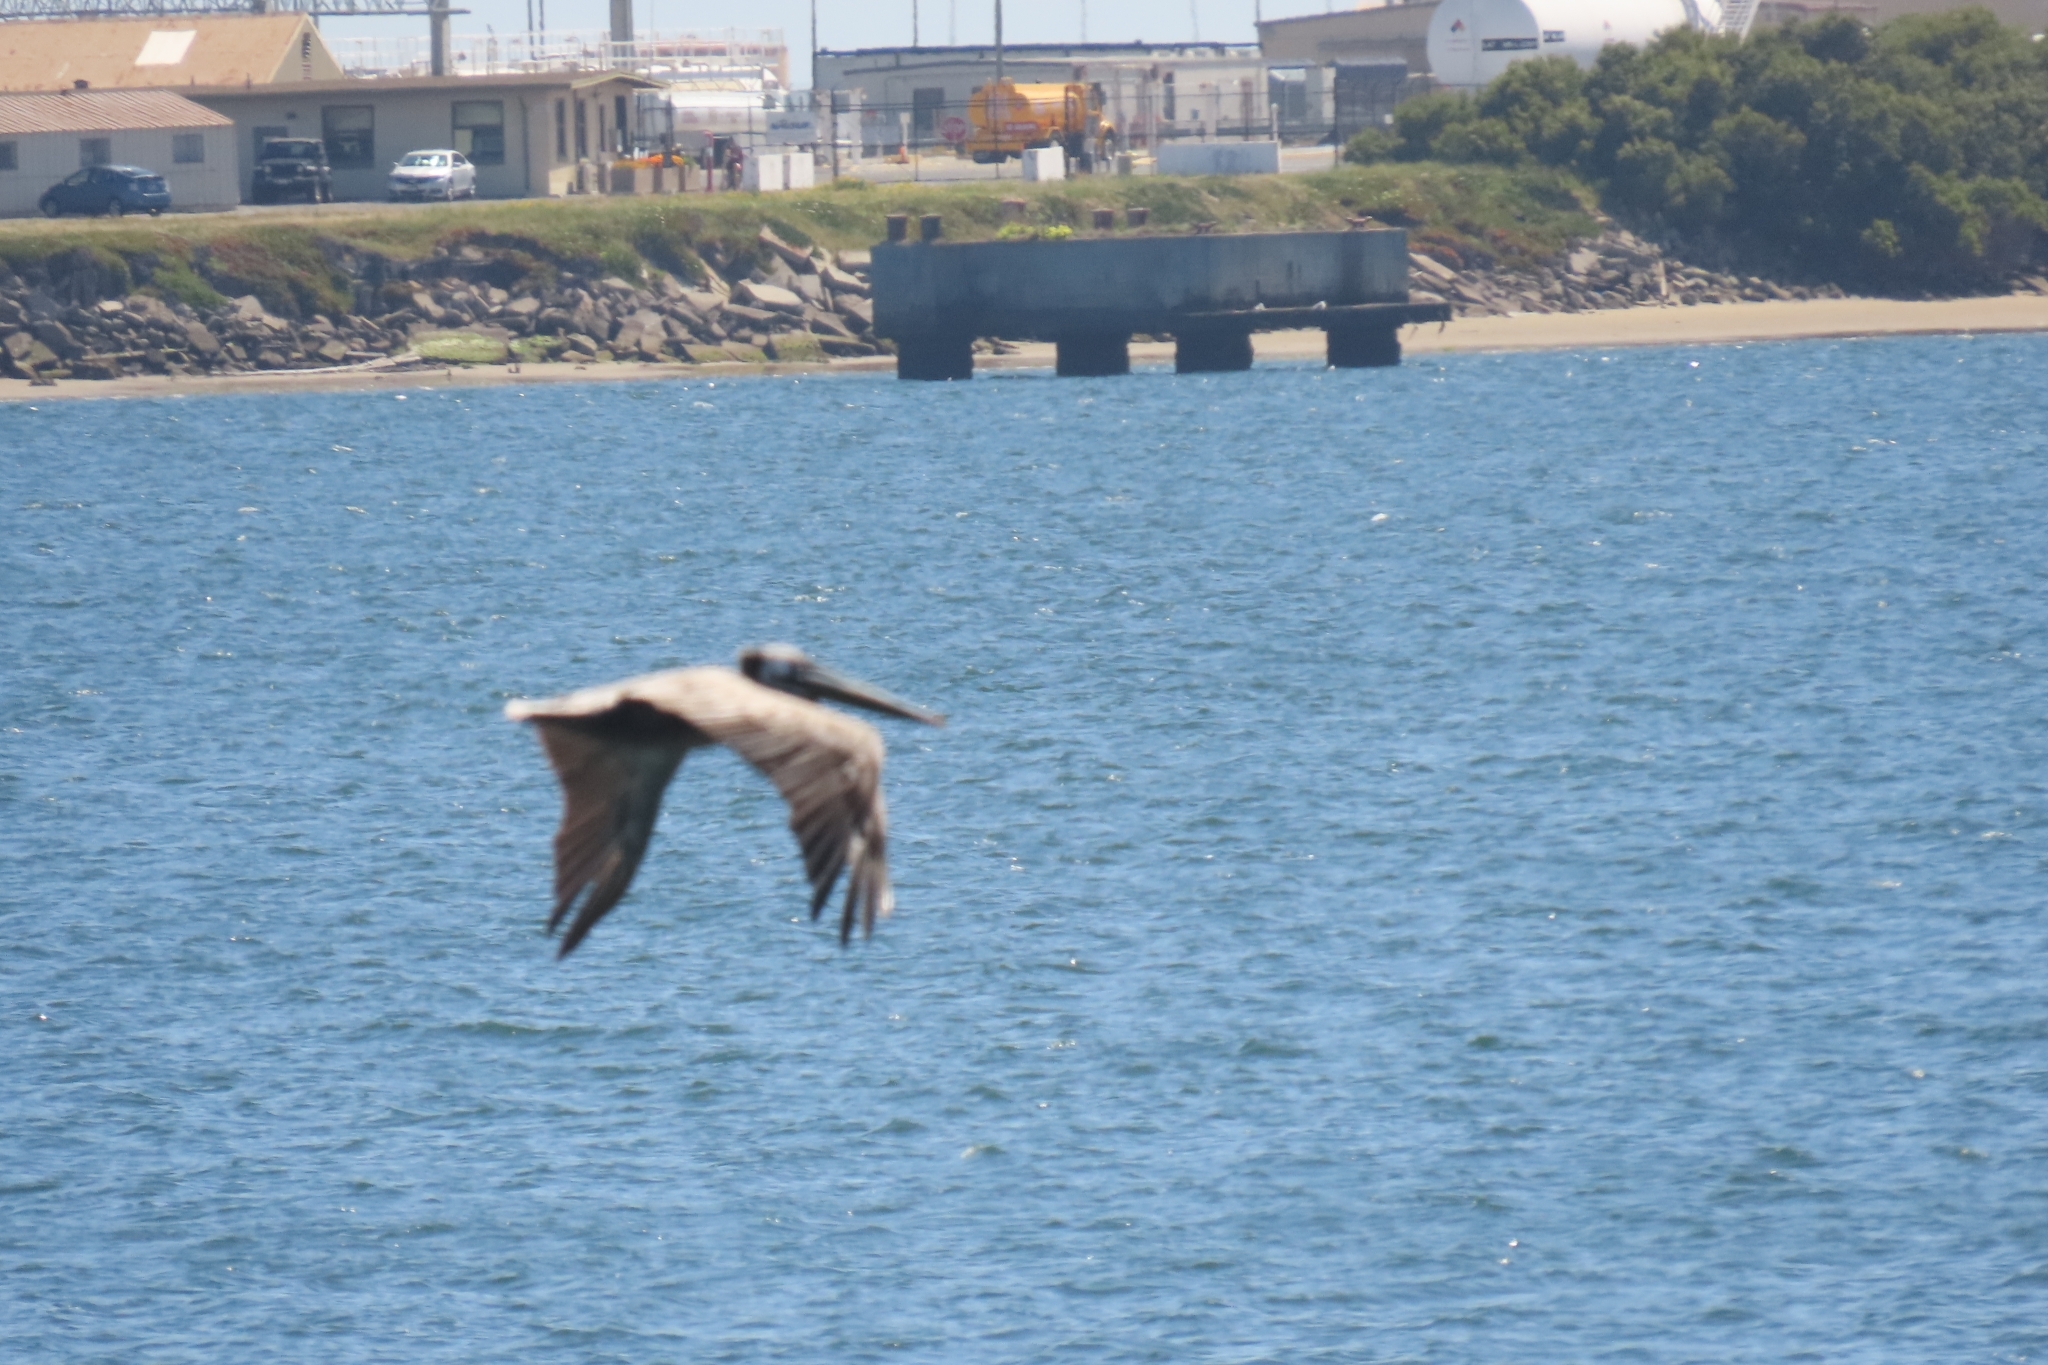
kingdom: Animalia
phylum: Chordata
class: Aves
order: Pelecaniformes
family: Pelecanidae
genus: Pelecanus
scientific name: Pelecanus occidentalis
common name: Brown pelican
